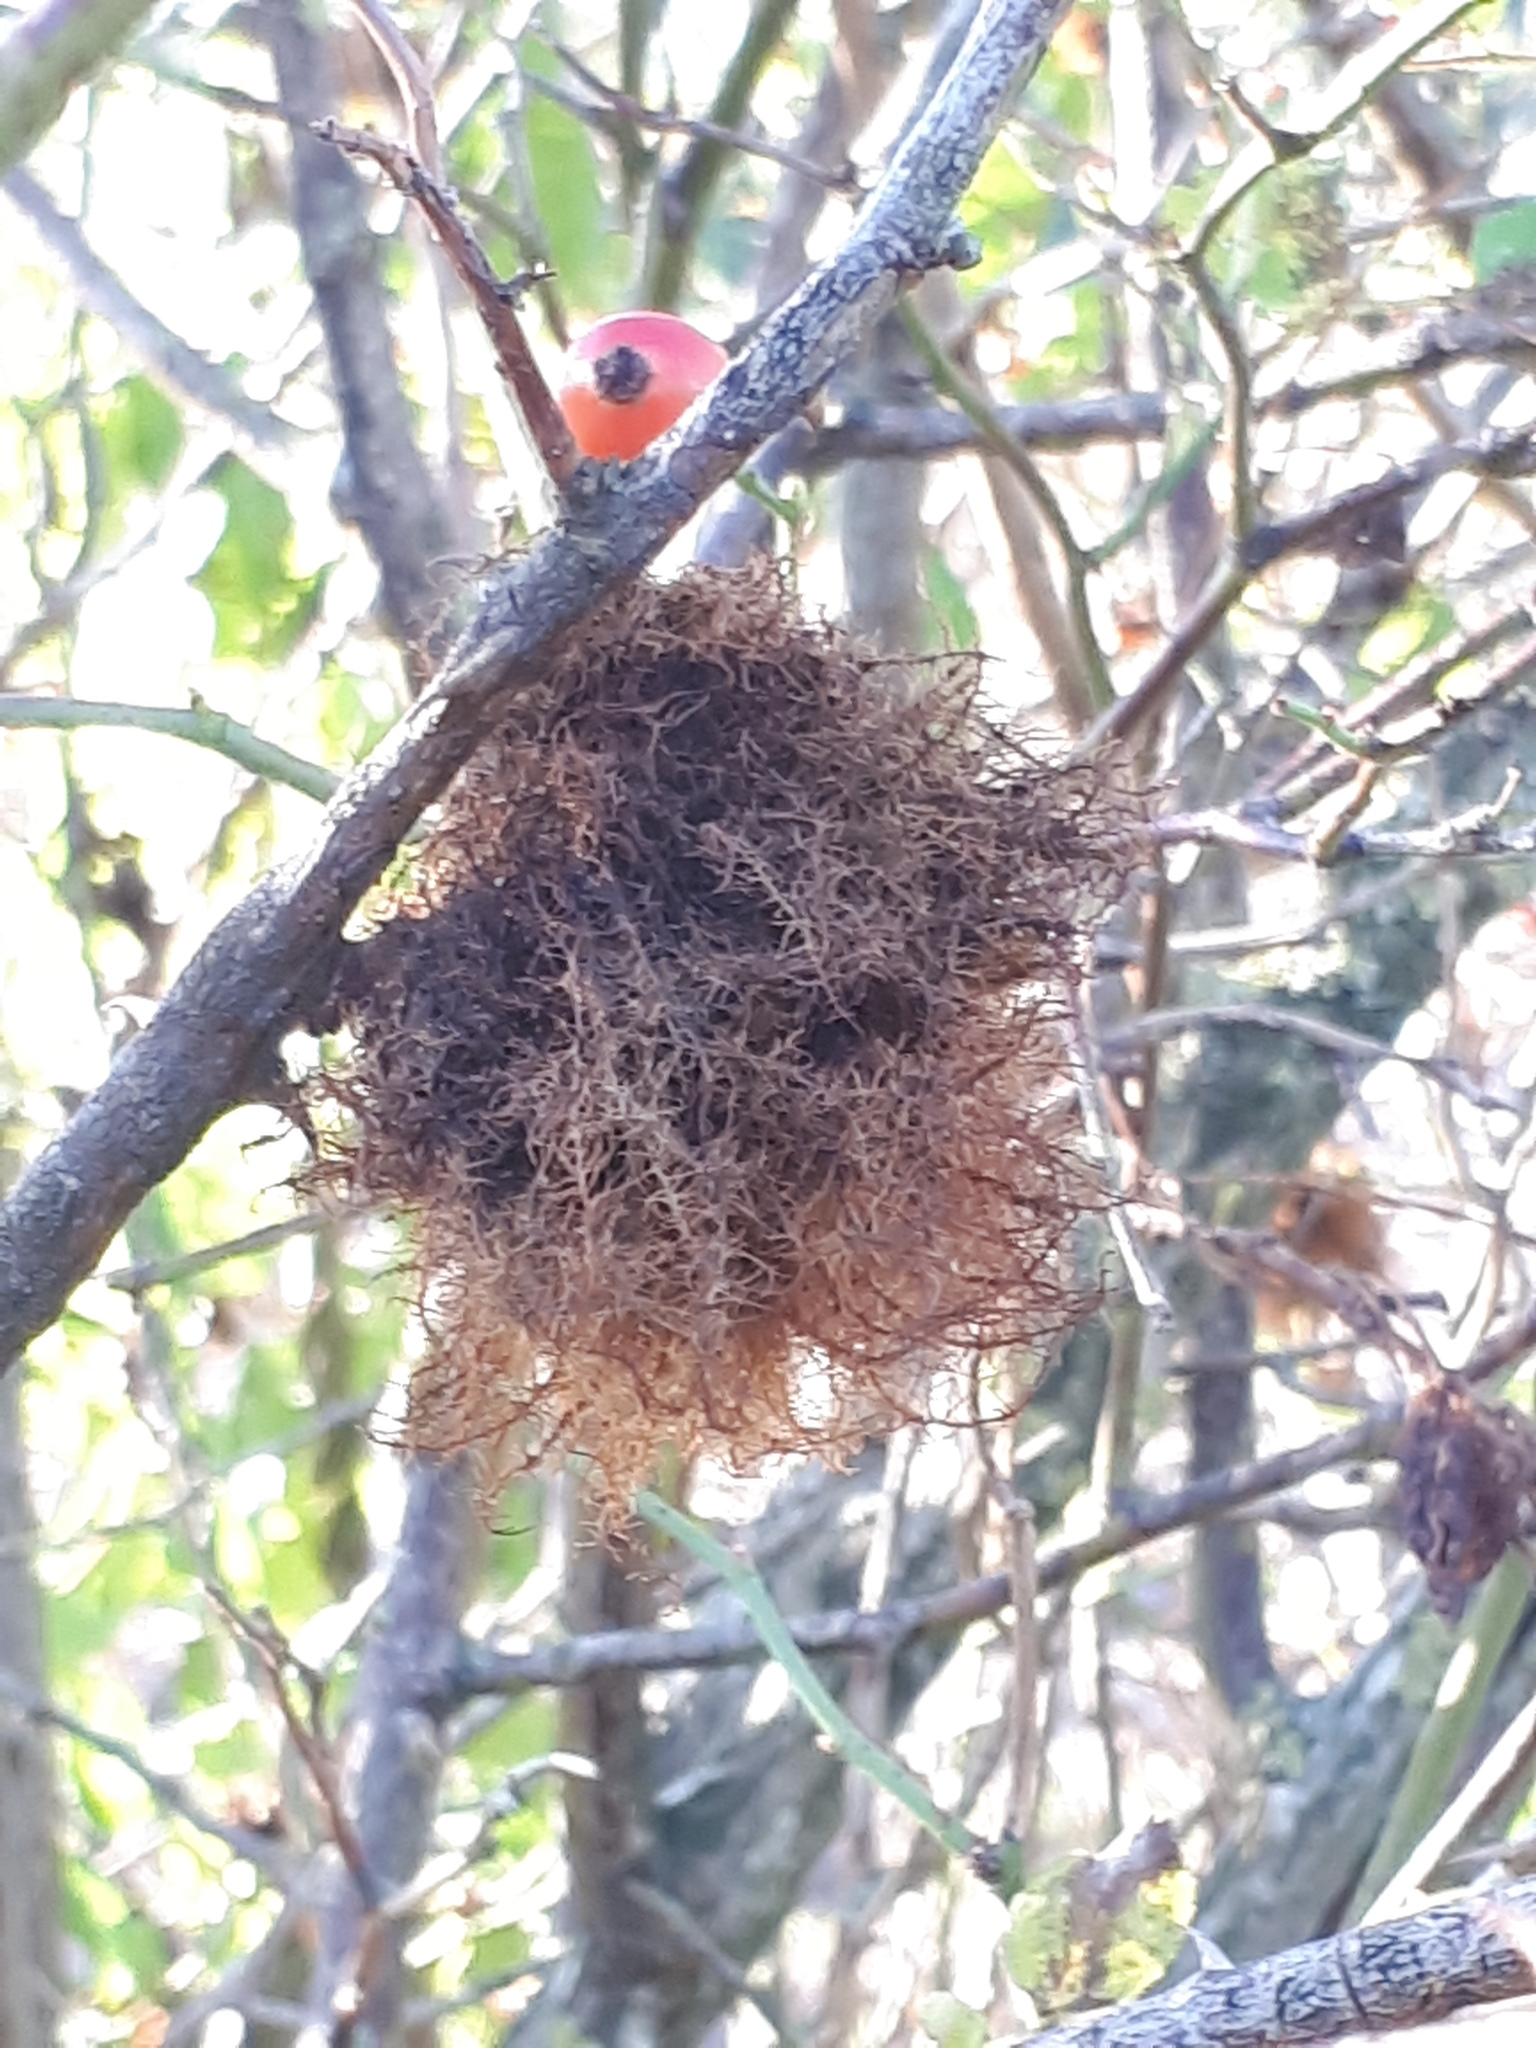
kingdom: Animalia
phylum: Arthropoda
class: Insecta
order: Hymenoptera
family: Cynipidae
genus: Diplolepis
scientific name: Diplolepis rosae
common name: Bedeguar gall
